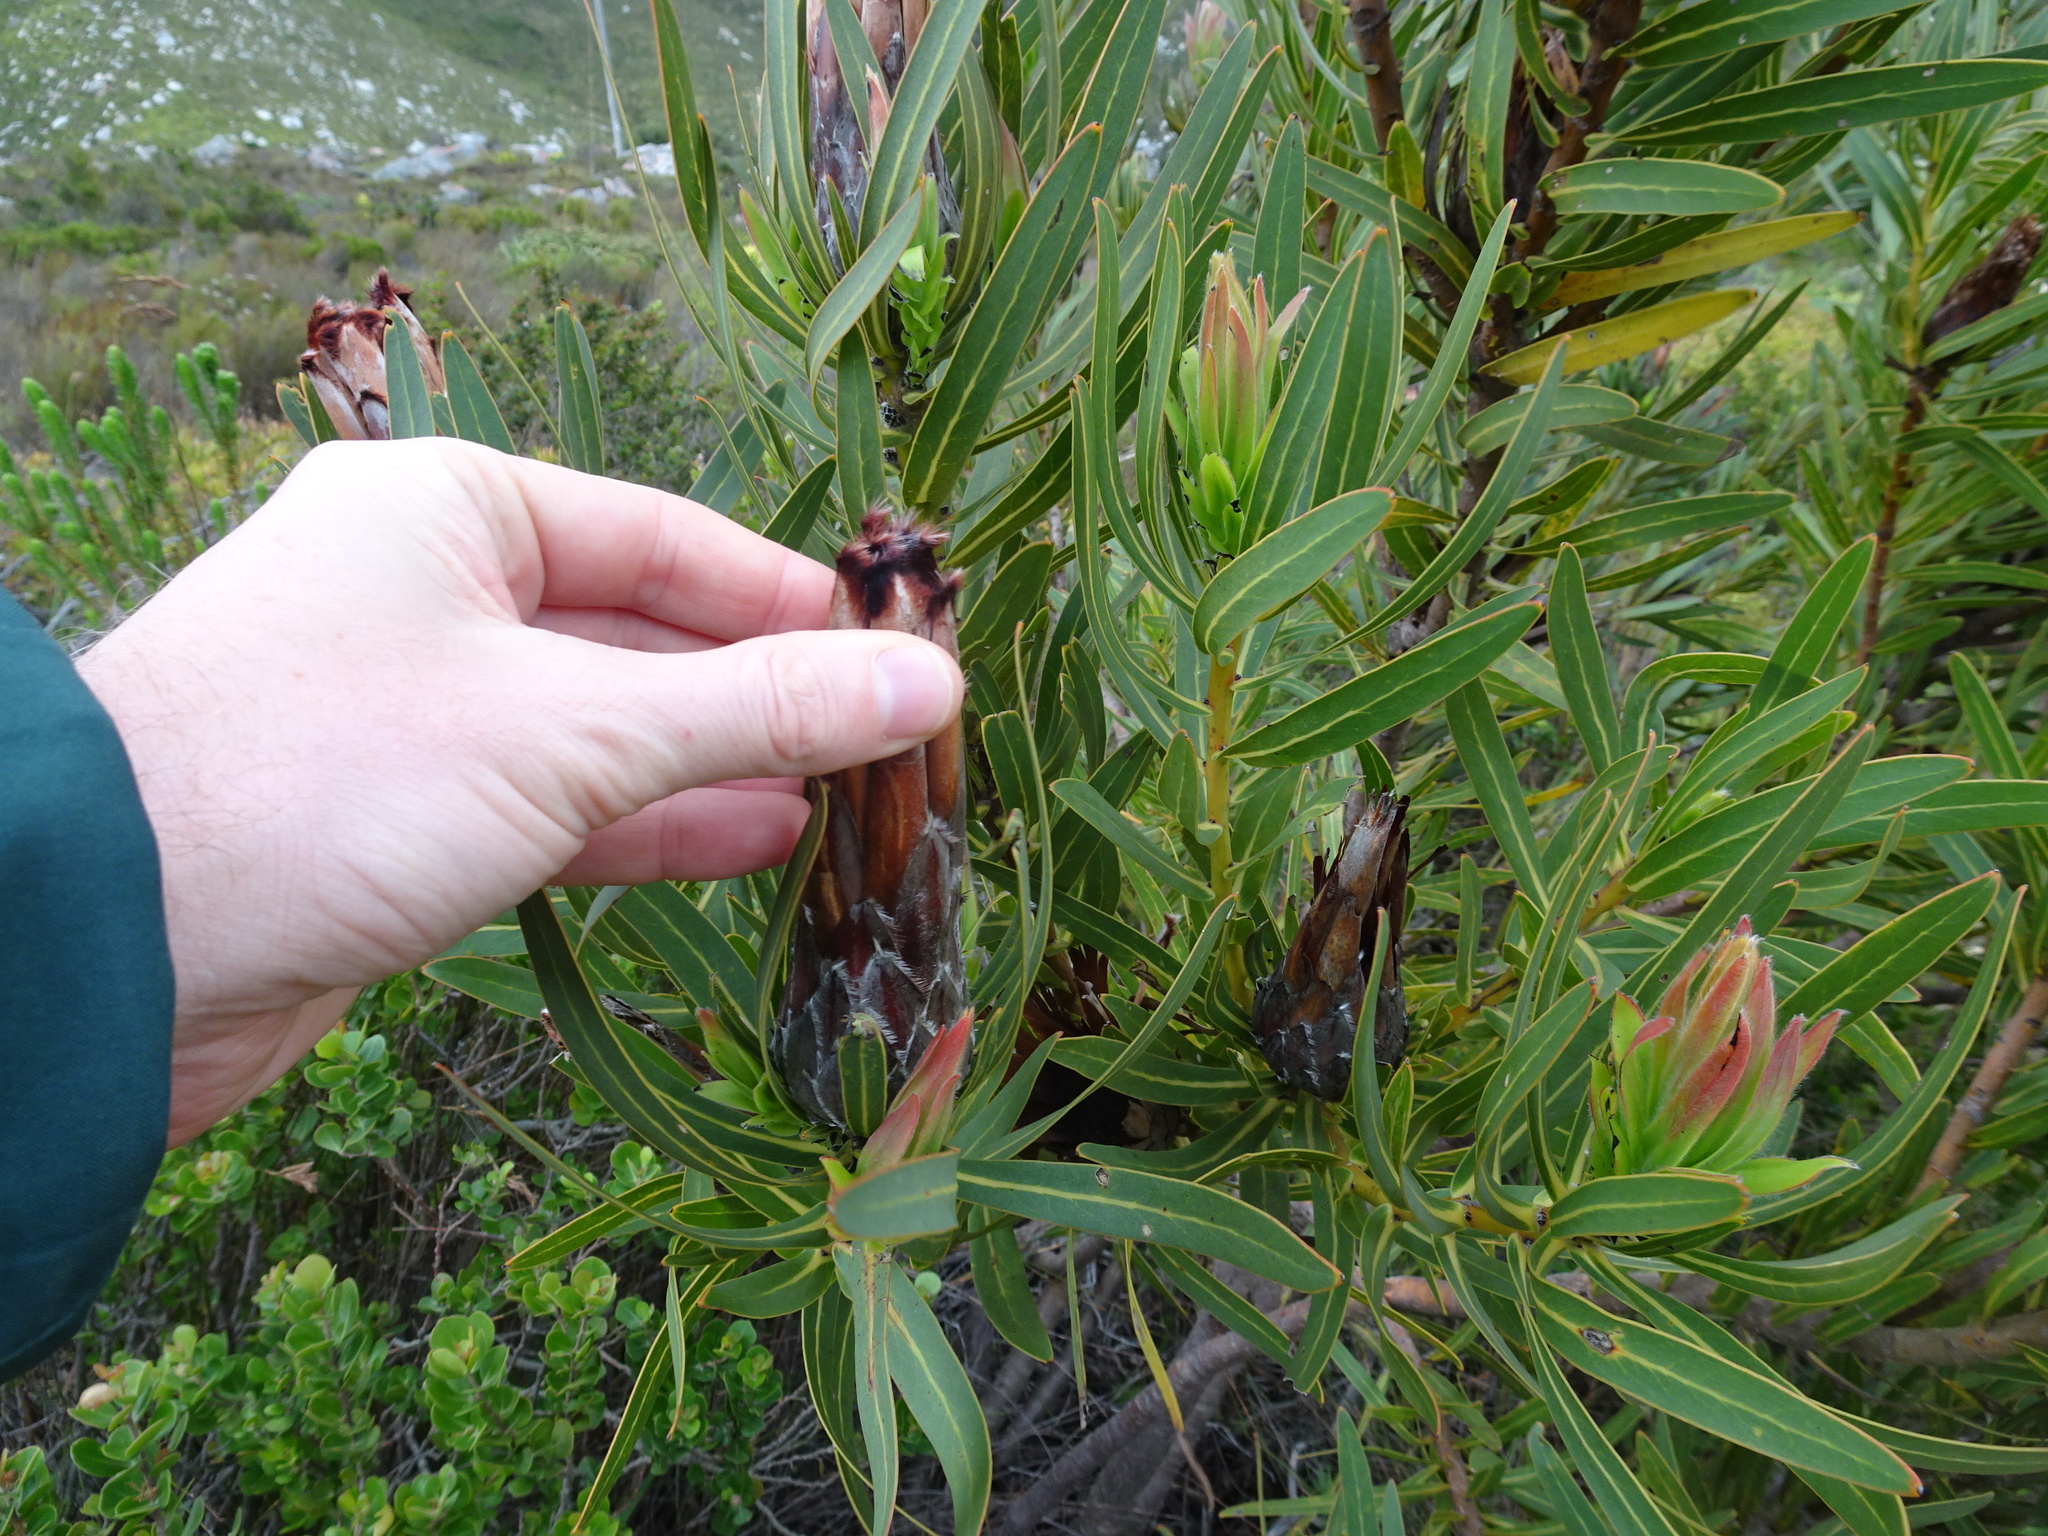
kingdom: Plantae
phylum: Tracheophyta
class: Magnoliopsida
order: Proteales
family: Proteaceae
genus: Protea
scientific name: Protea lepidocarpodendron
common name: Black-bearded protea
